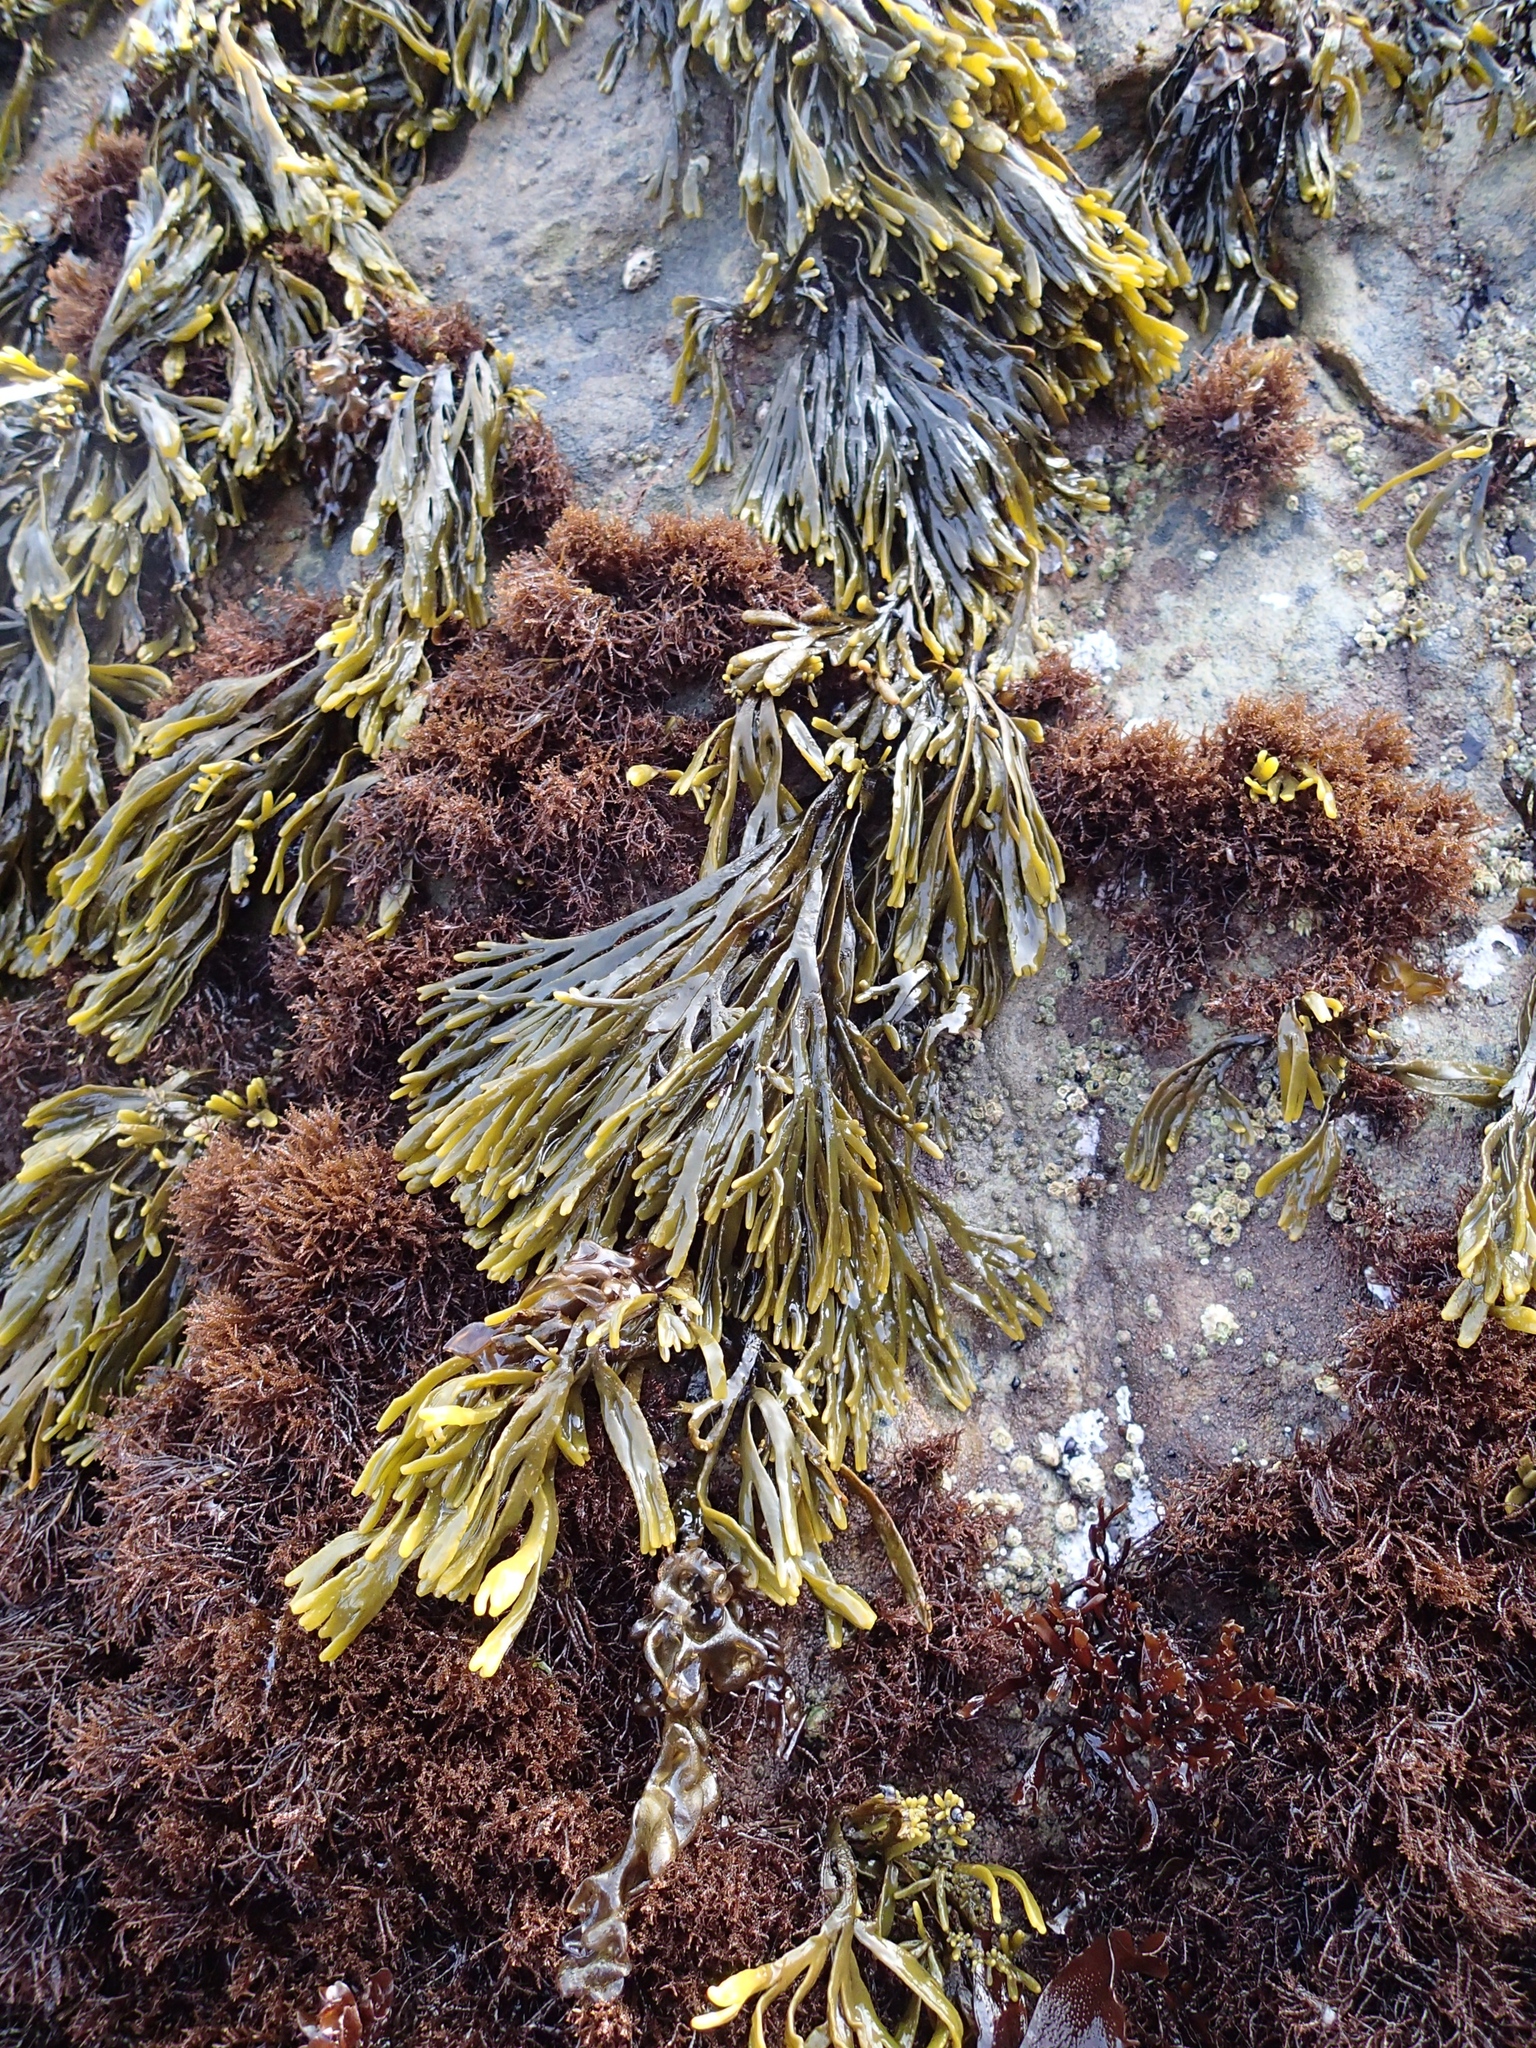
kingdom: Chromista
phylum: Ochrophyta
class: Phaeophyceae
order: Fucales
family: Fucaceae
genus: Pelvetiopsis
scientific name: Pelvetiopsis limitata
